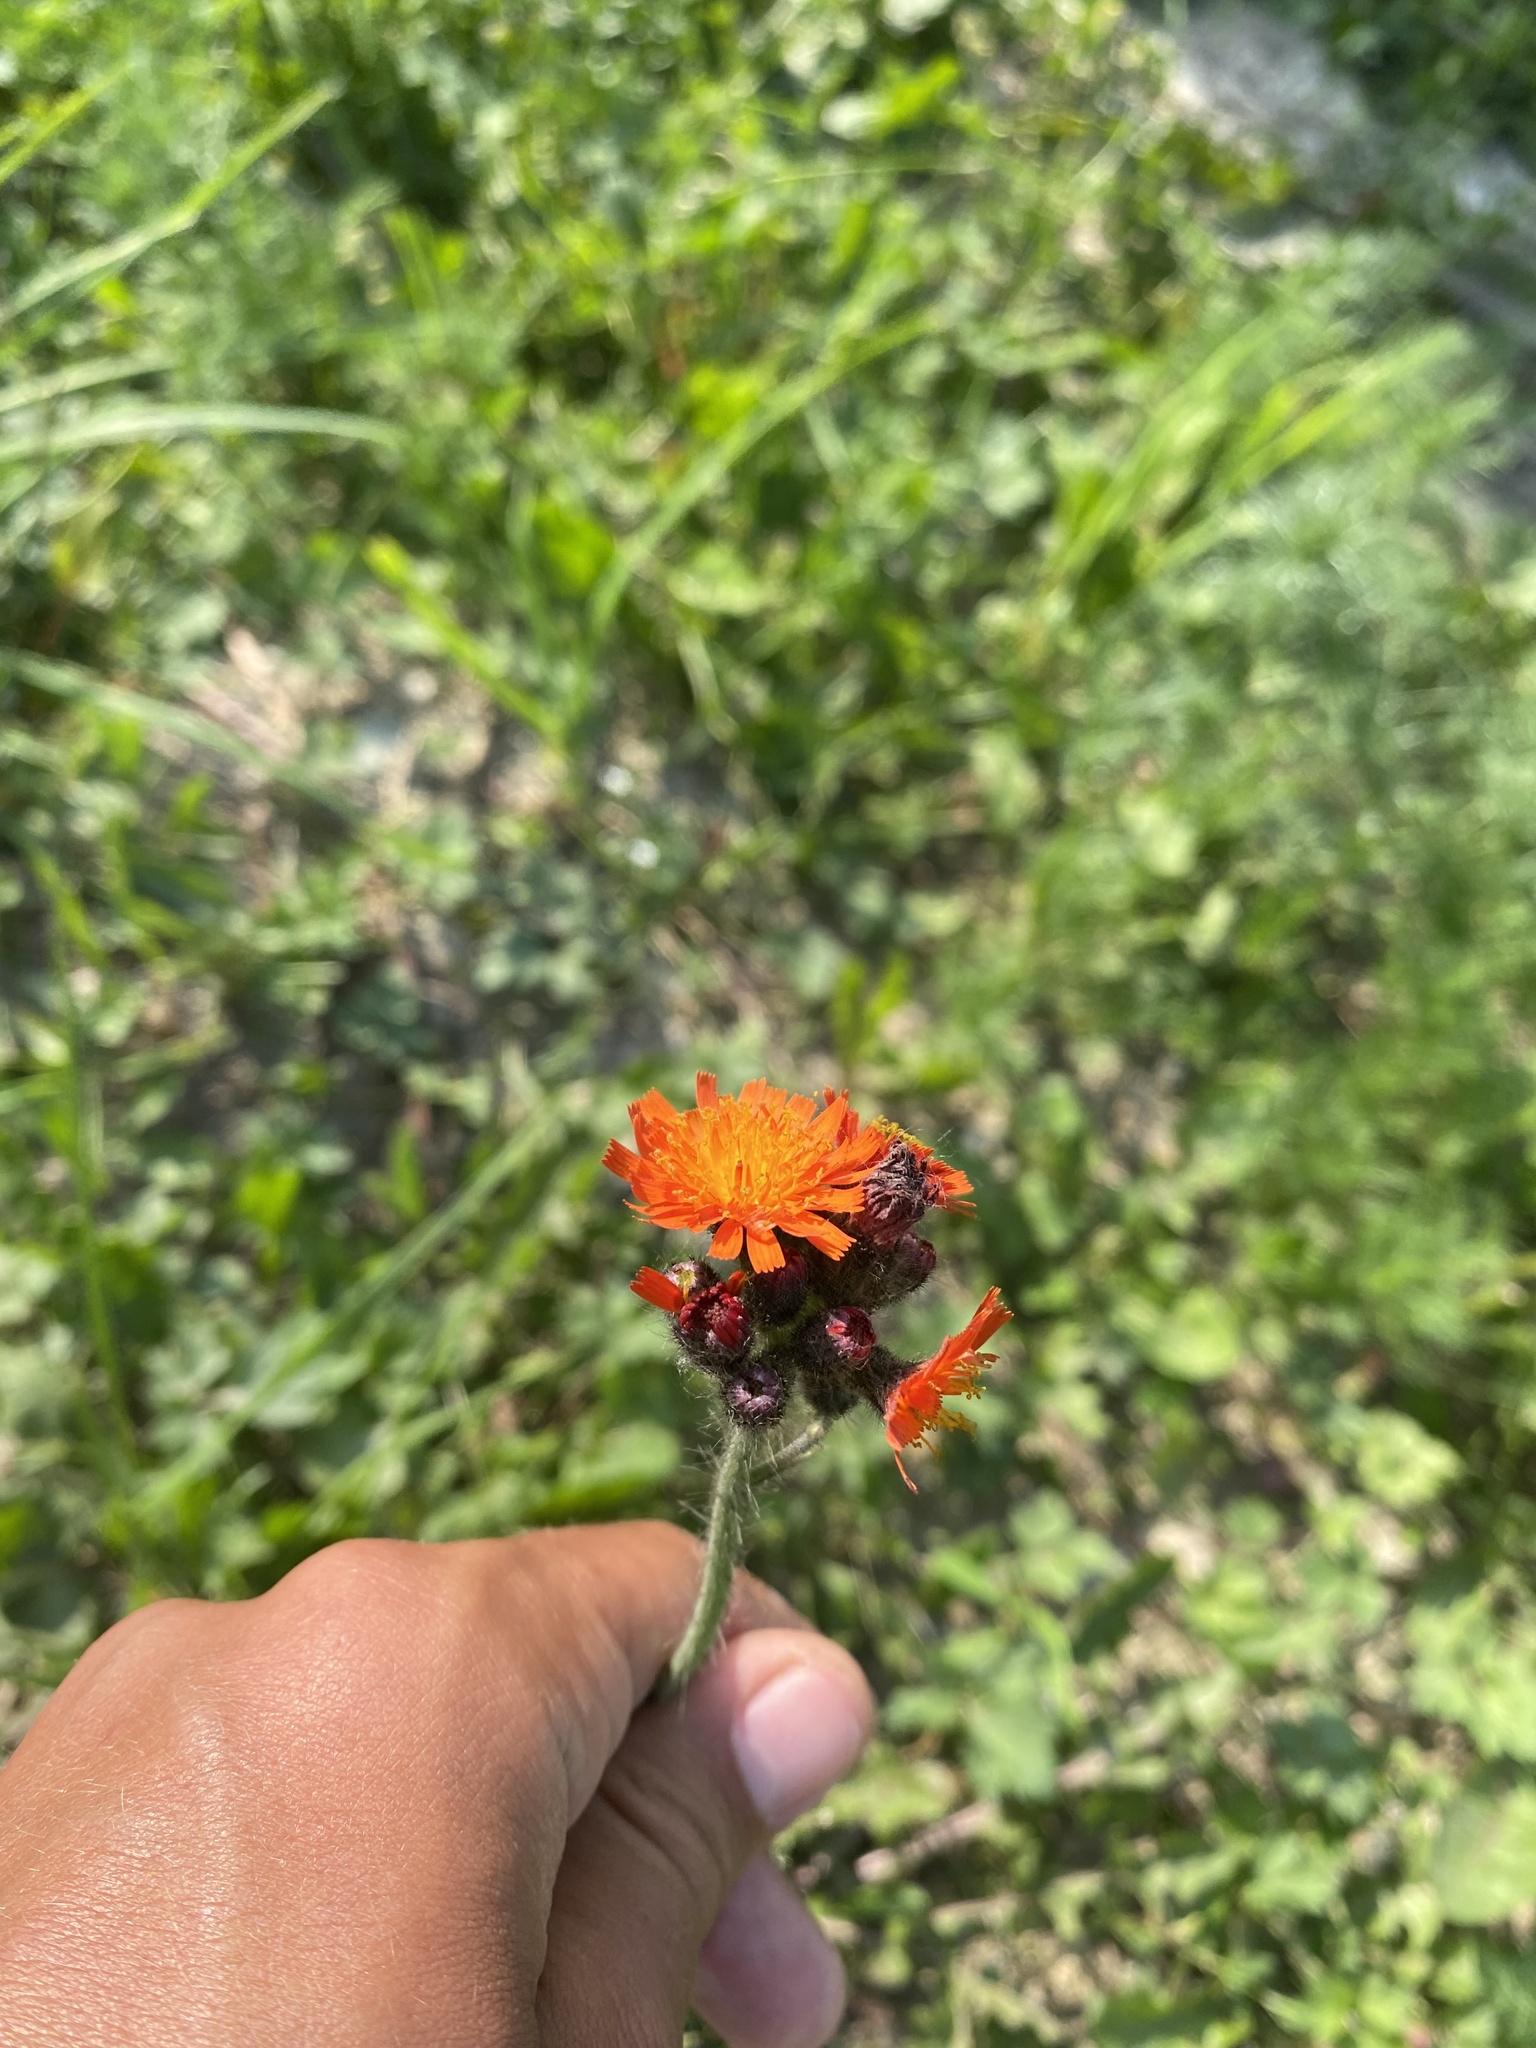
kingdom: Plantae
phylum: Tracheophyta
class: Magnoliopsida
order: Asterales
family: Asteraceae
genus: Pilosella
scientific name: Pilosella aurantiaca
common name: Fox-and-cubs
